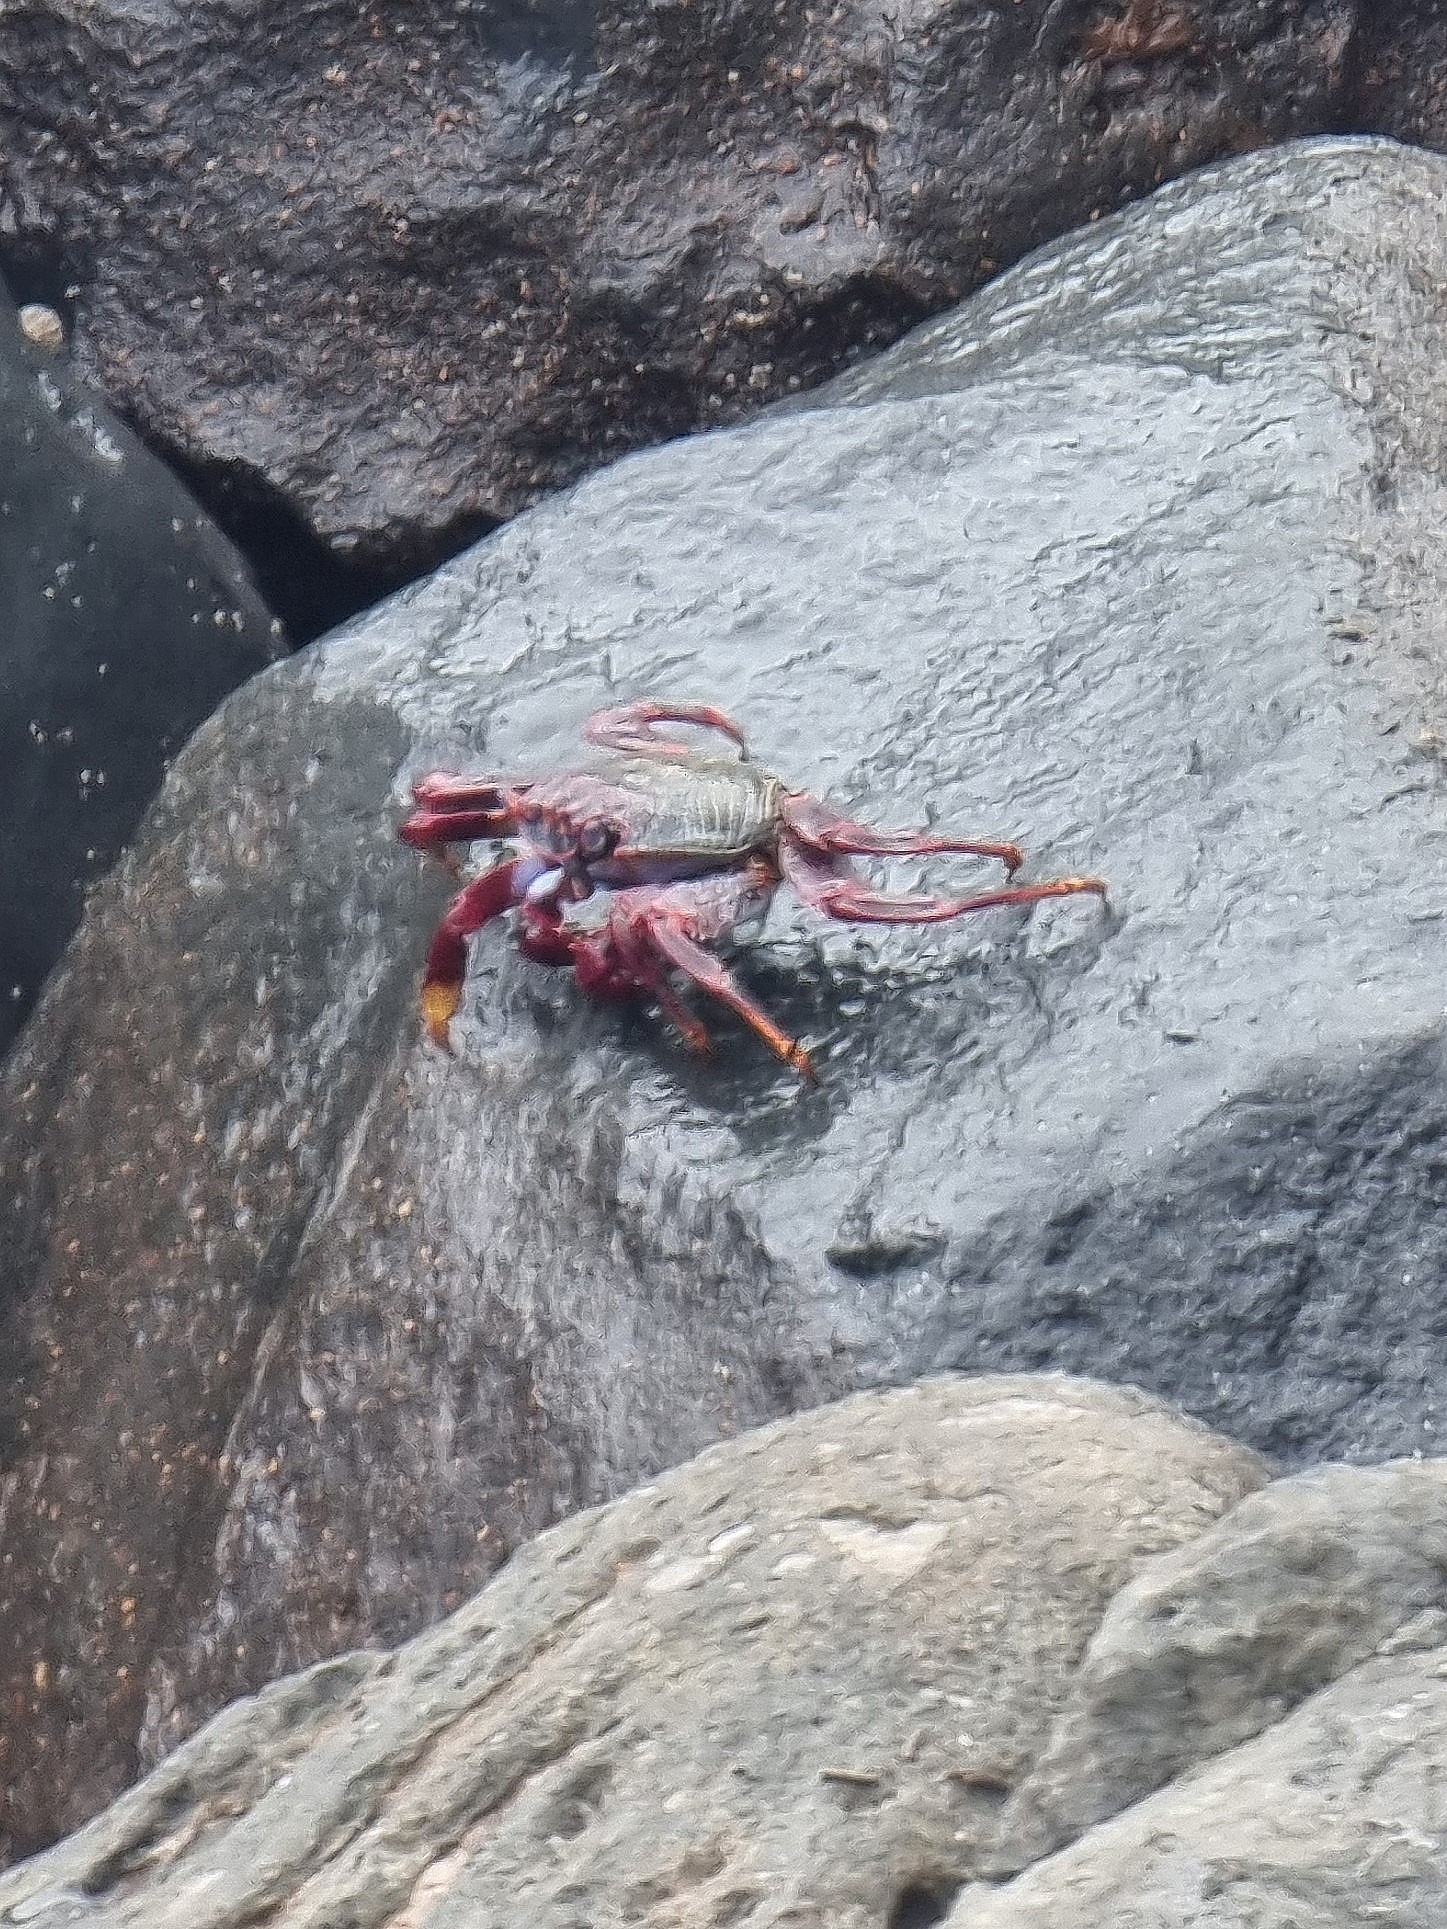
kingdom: Animalia
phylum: Arthropoda
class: Malacostraca
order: Decapoda
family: Grapsidae
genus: Grapsus
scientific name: Grapsus adscensionis
